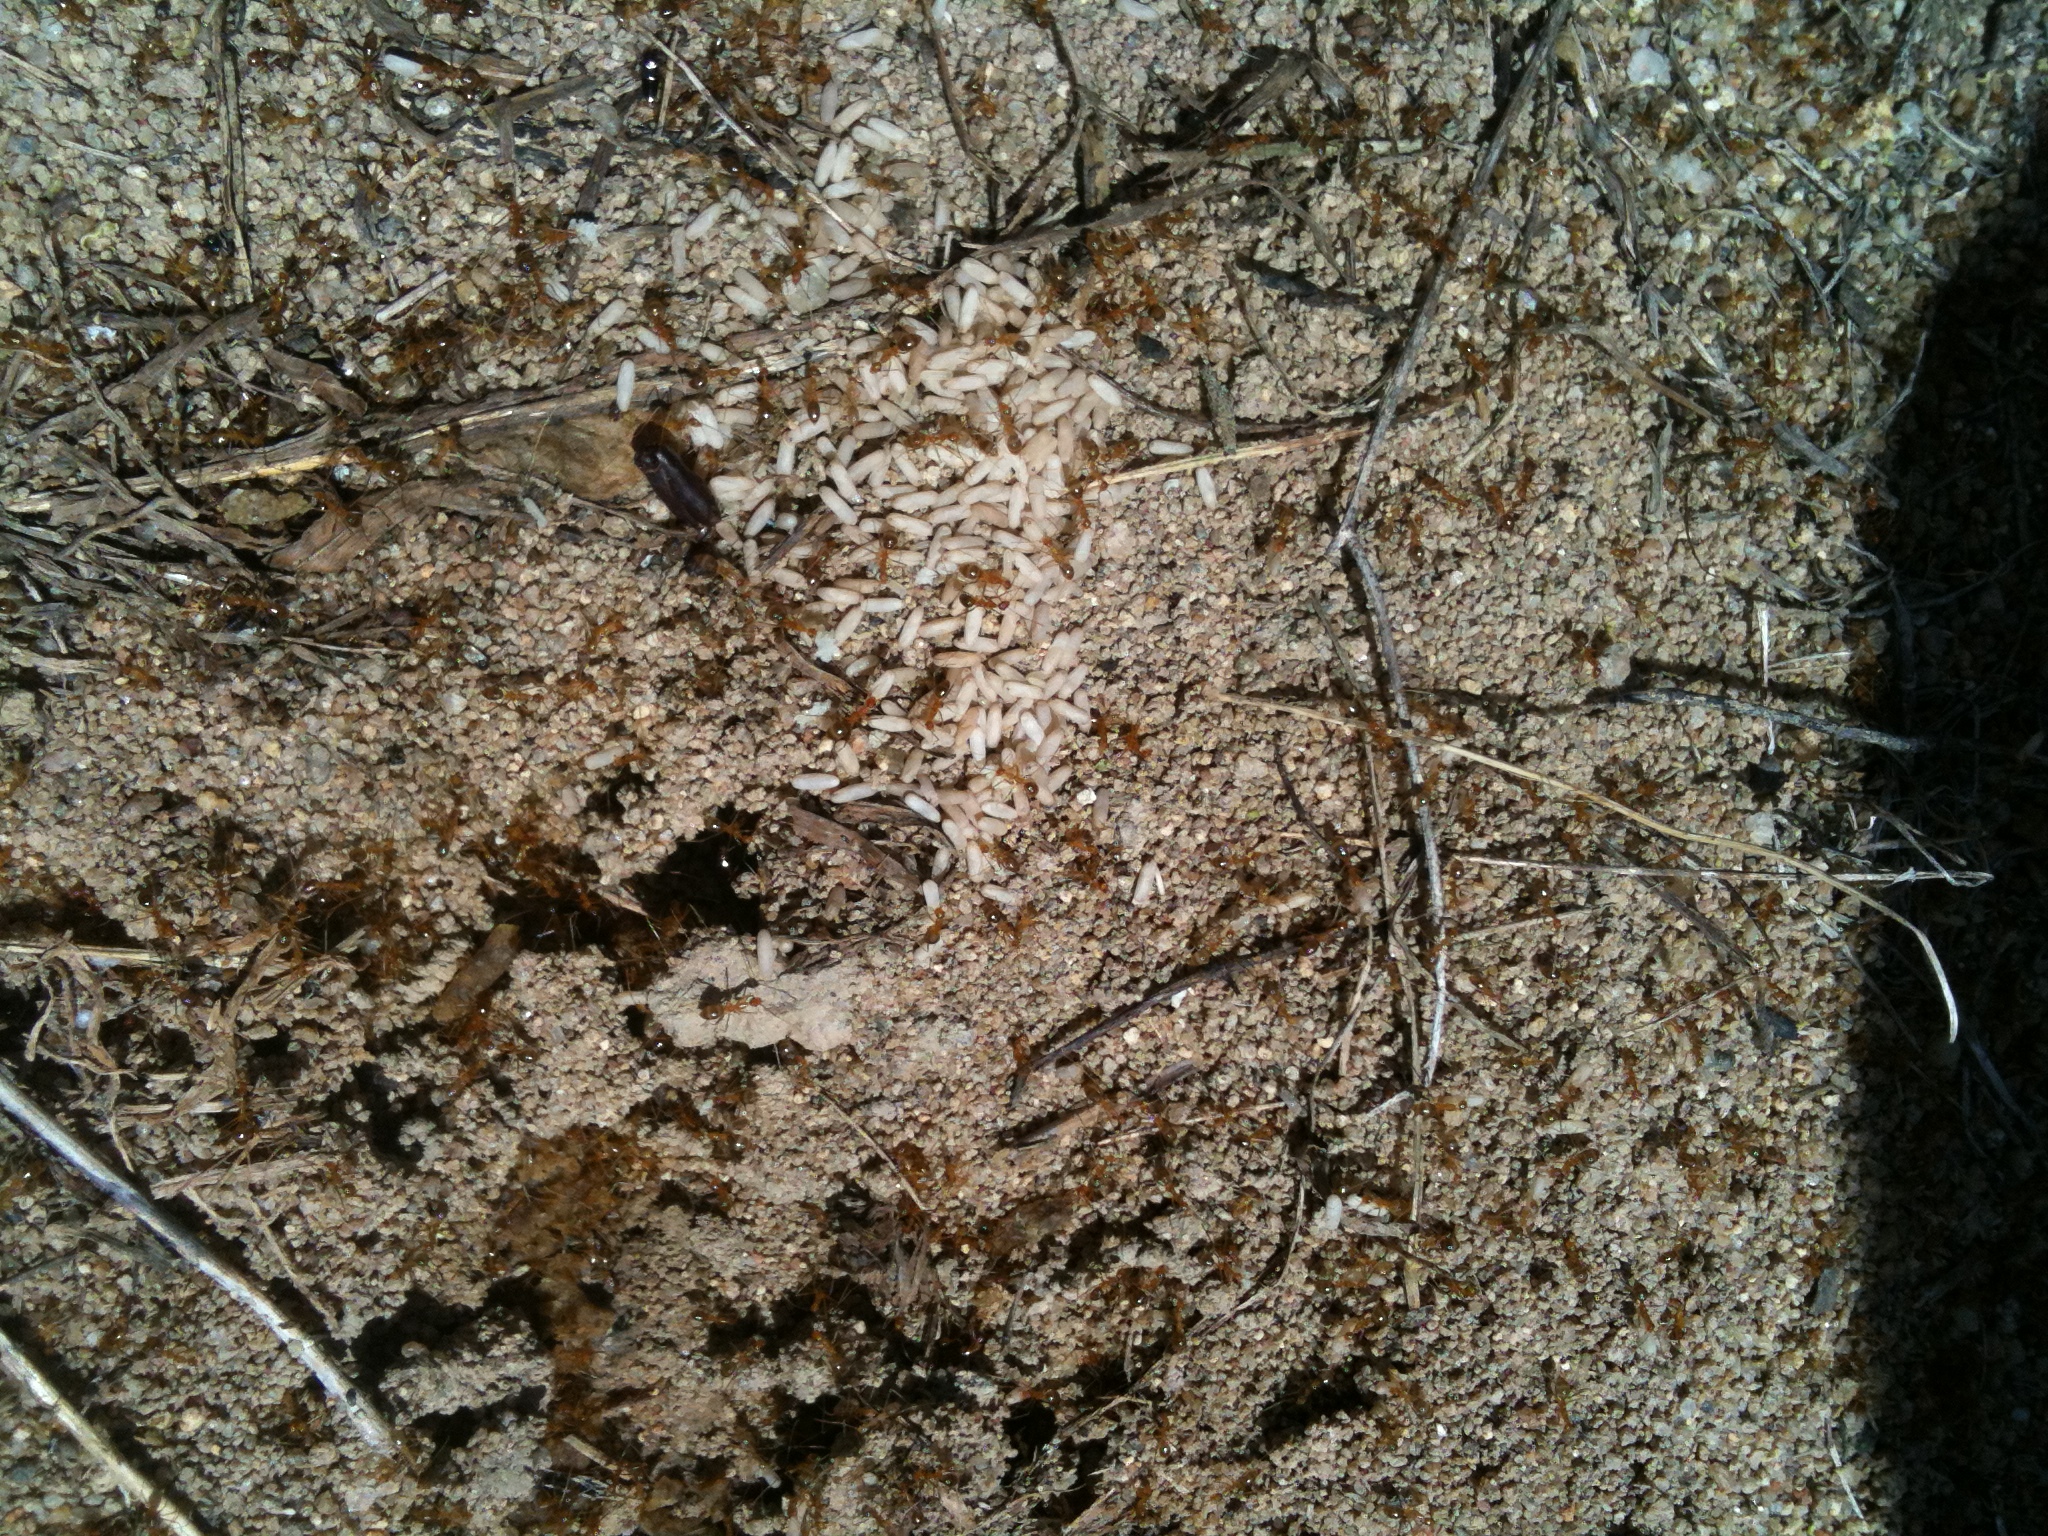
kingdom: Animalia
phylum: Arthropoda
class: Insecta
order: Hymenoptera
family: Formicidae
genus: Anoplolepis
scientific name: Anoplolepis gracilipes
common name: Ant
